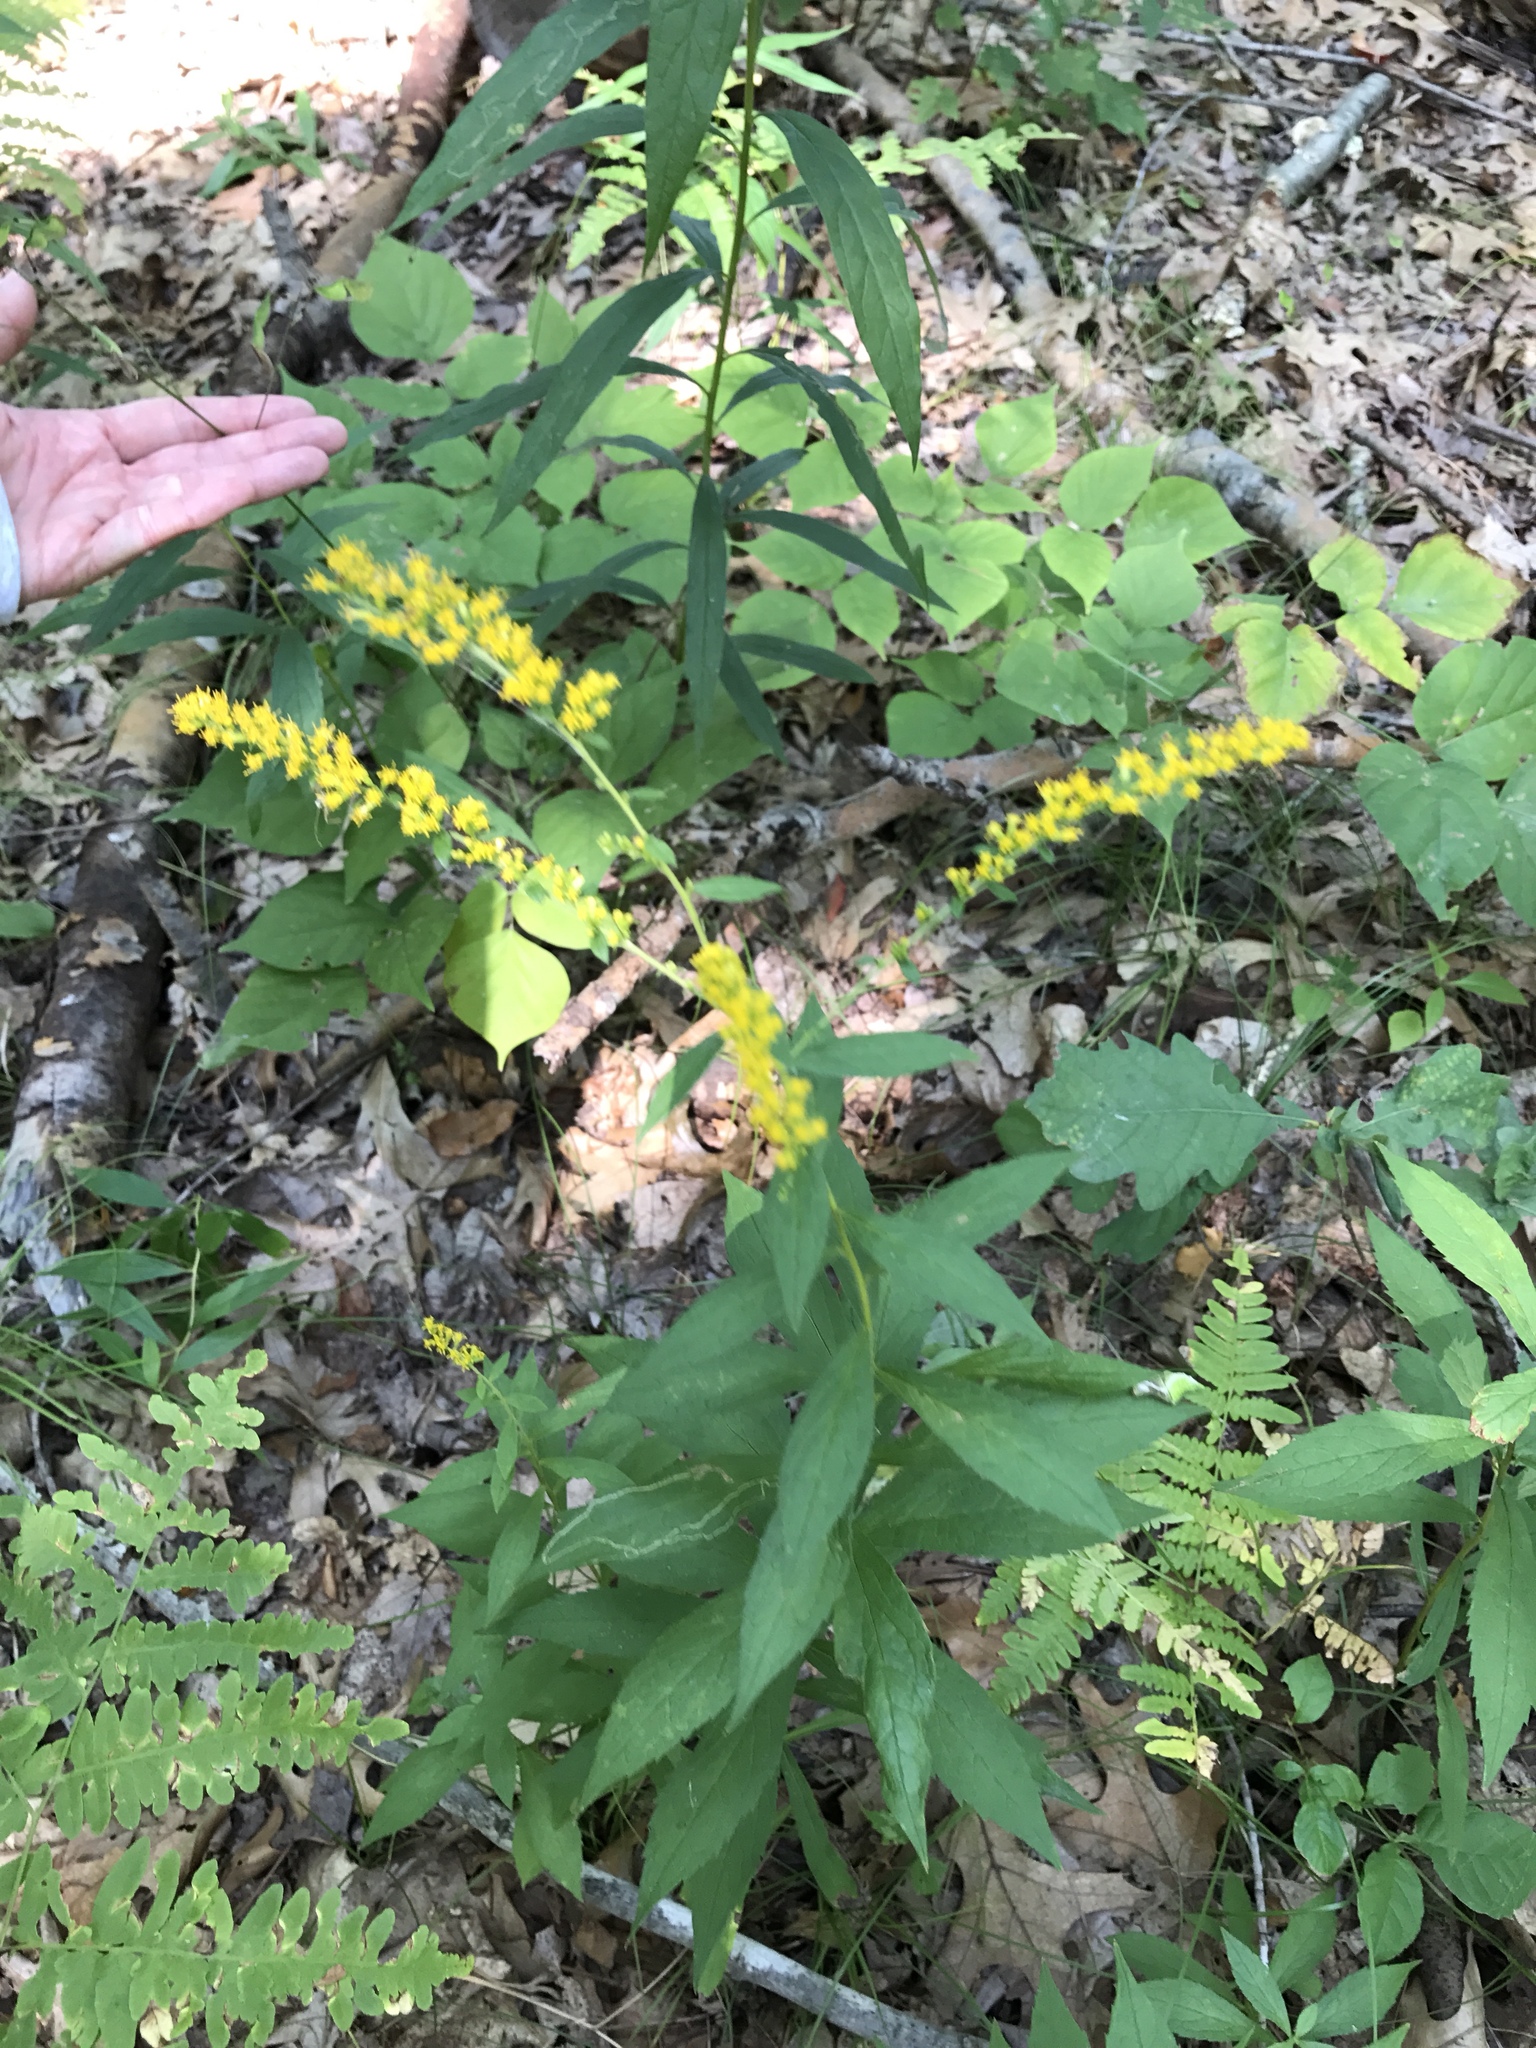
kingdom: Plantae
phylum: Tracheophyta
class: Magnoliopsida
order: Asterales
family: Asteraceae
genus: Solidago
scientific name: Solidago rugosa
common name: Rough-stemmed goldenrod
